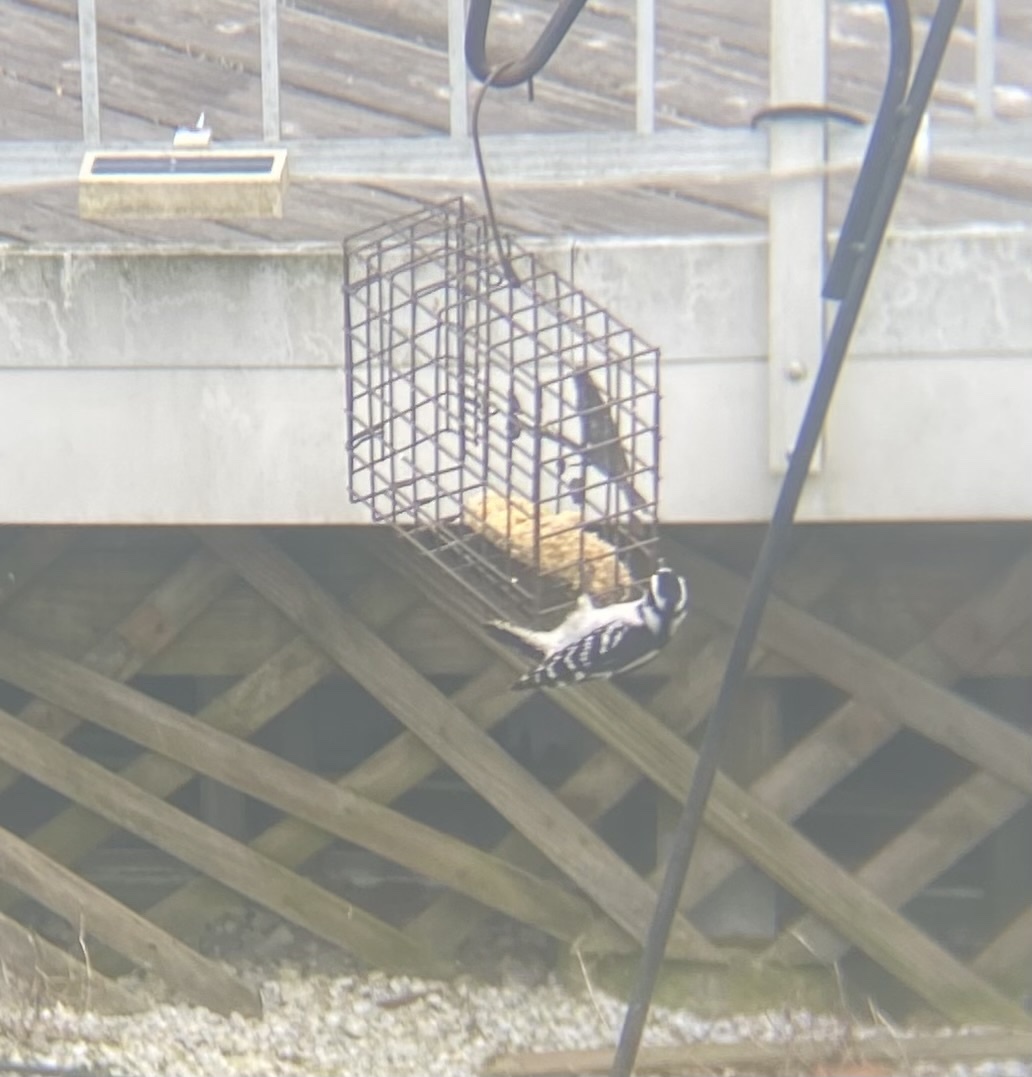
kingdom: Animalia
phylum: Chordata
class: Aves
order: Piciformes
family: Picidae
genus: Dryobates
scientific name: Dryobates pubescens
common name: Downy woodpecker
